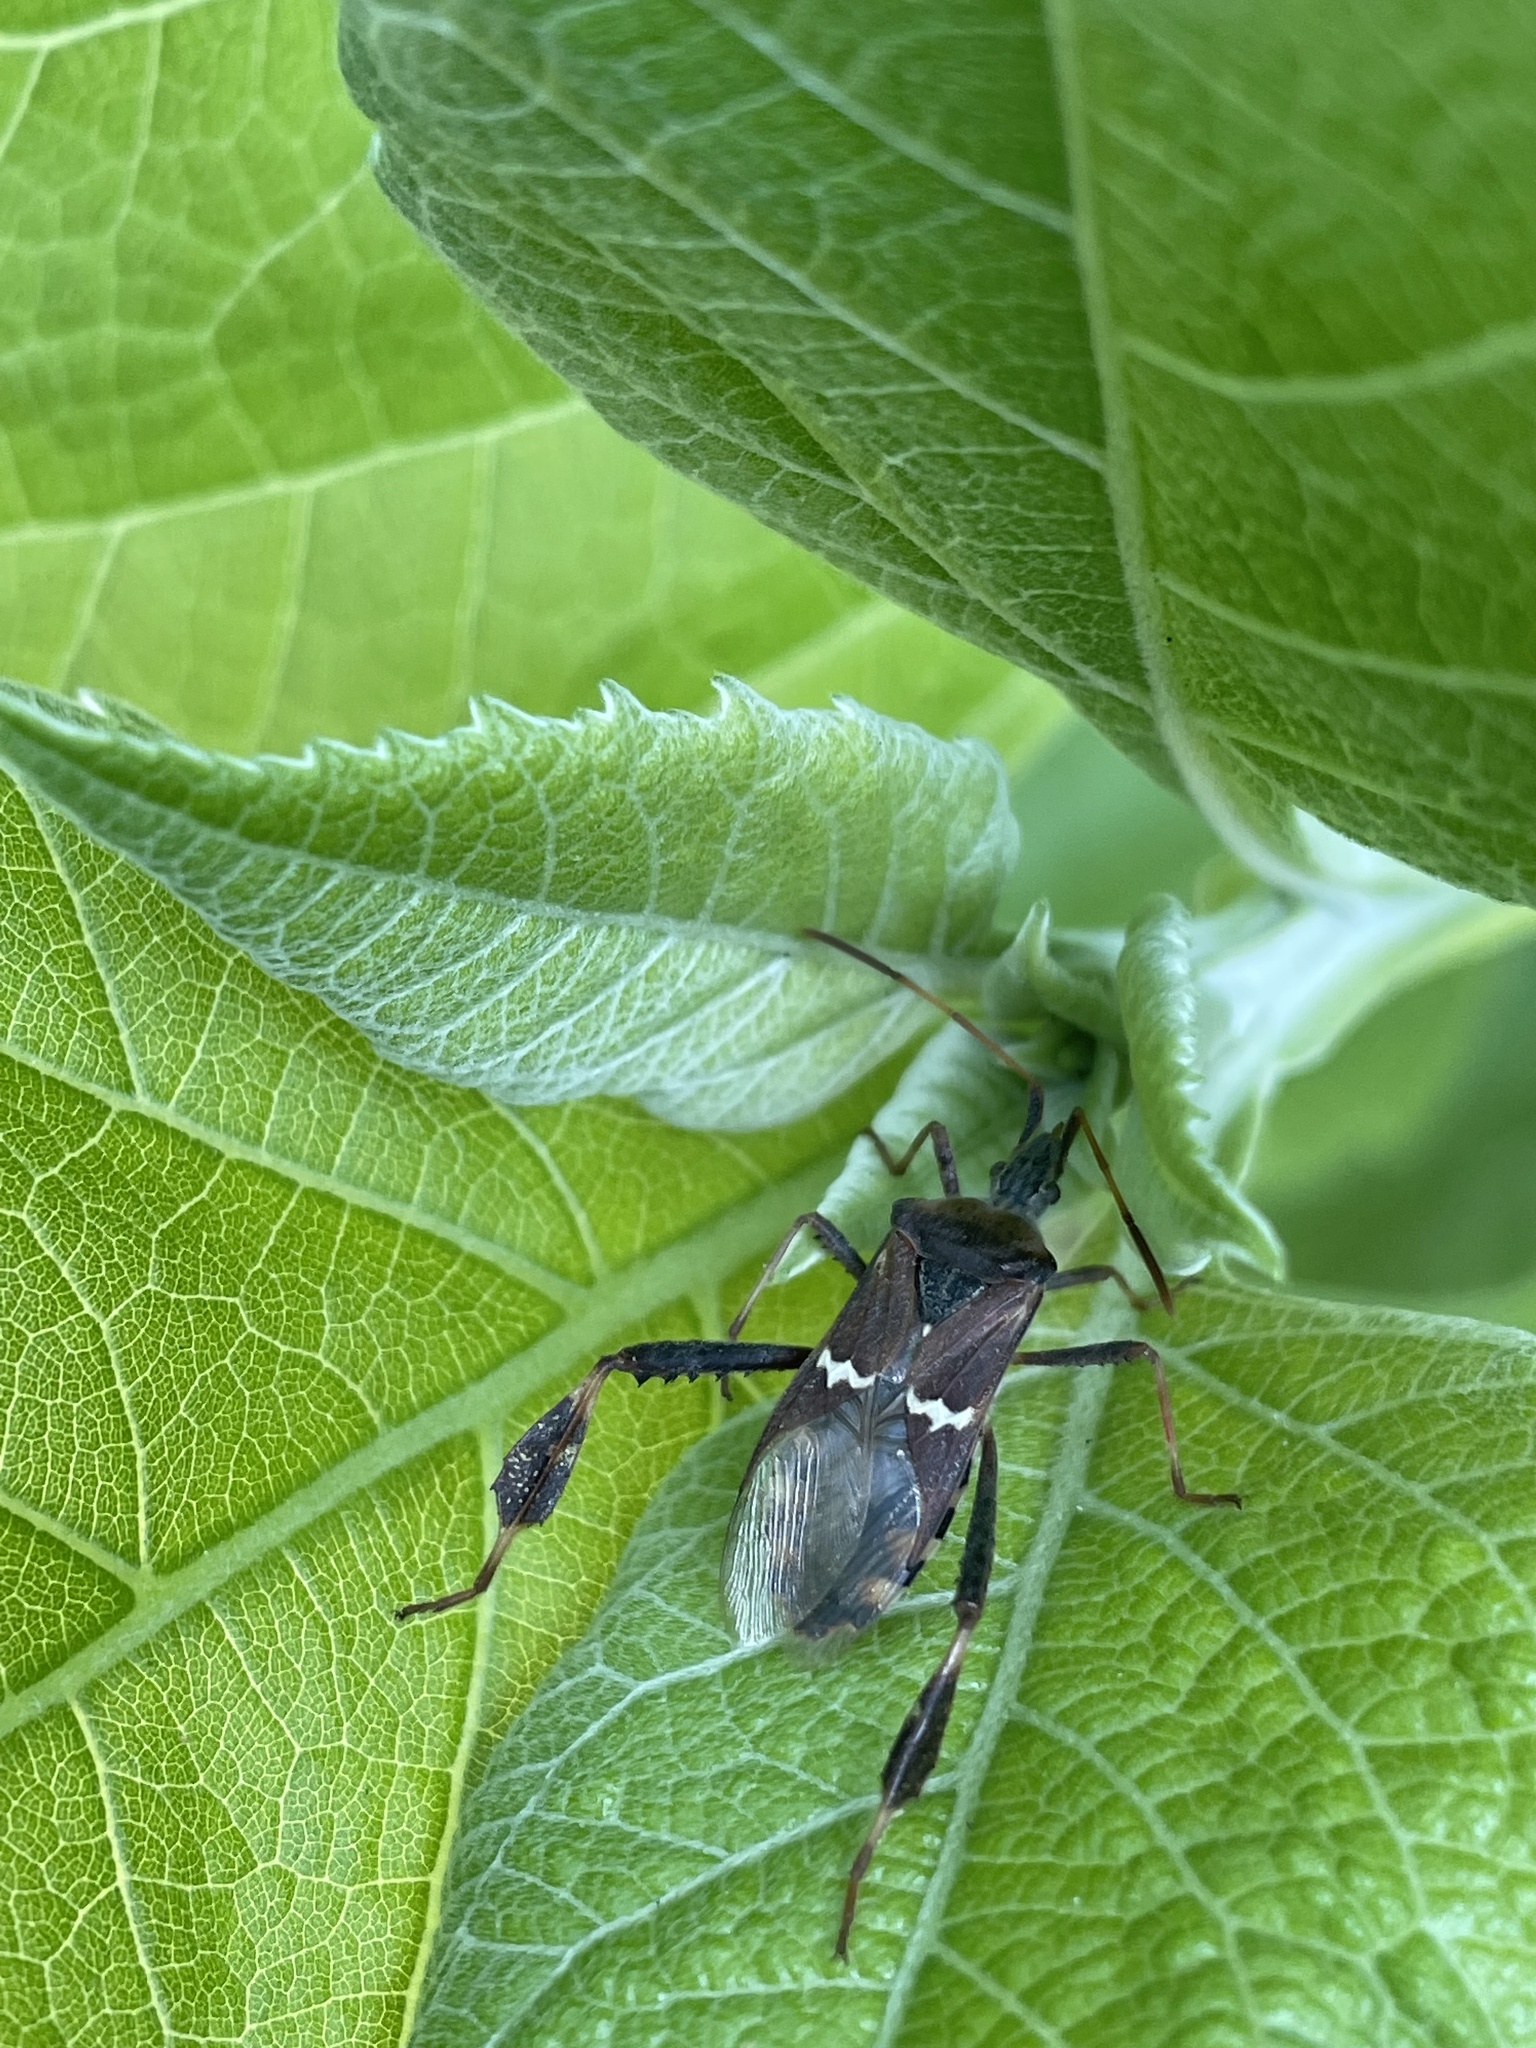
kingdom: Animalia
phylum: Arthropoda
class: Insecta
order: Hemiptera
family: Coreidae
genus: Leptoglossus
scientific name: Leptoglossus clypealis
